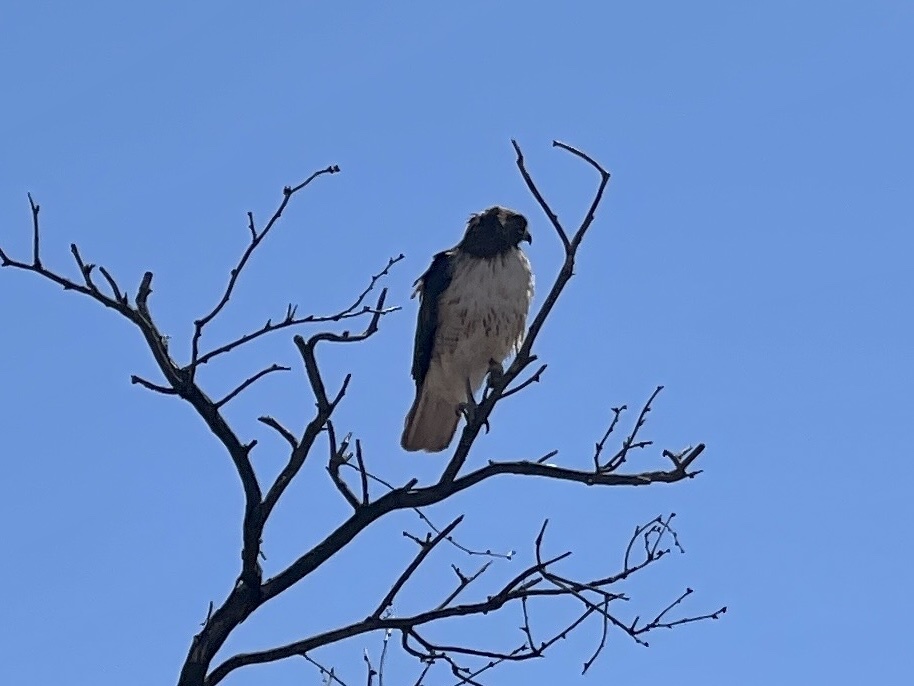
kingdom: Animalia
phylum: Chordata
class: Aves
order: Accipitriformes
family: Accipitridae
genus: Buteo
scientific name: Buteo jamaicensis
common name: Red-tailed hawk
